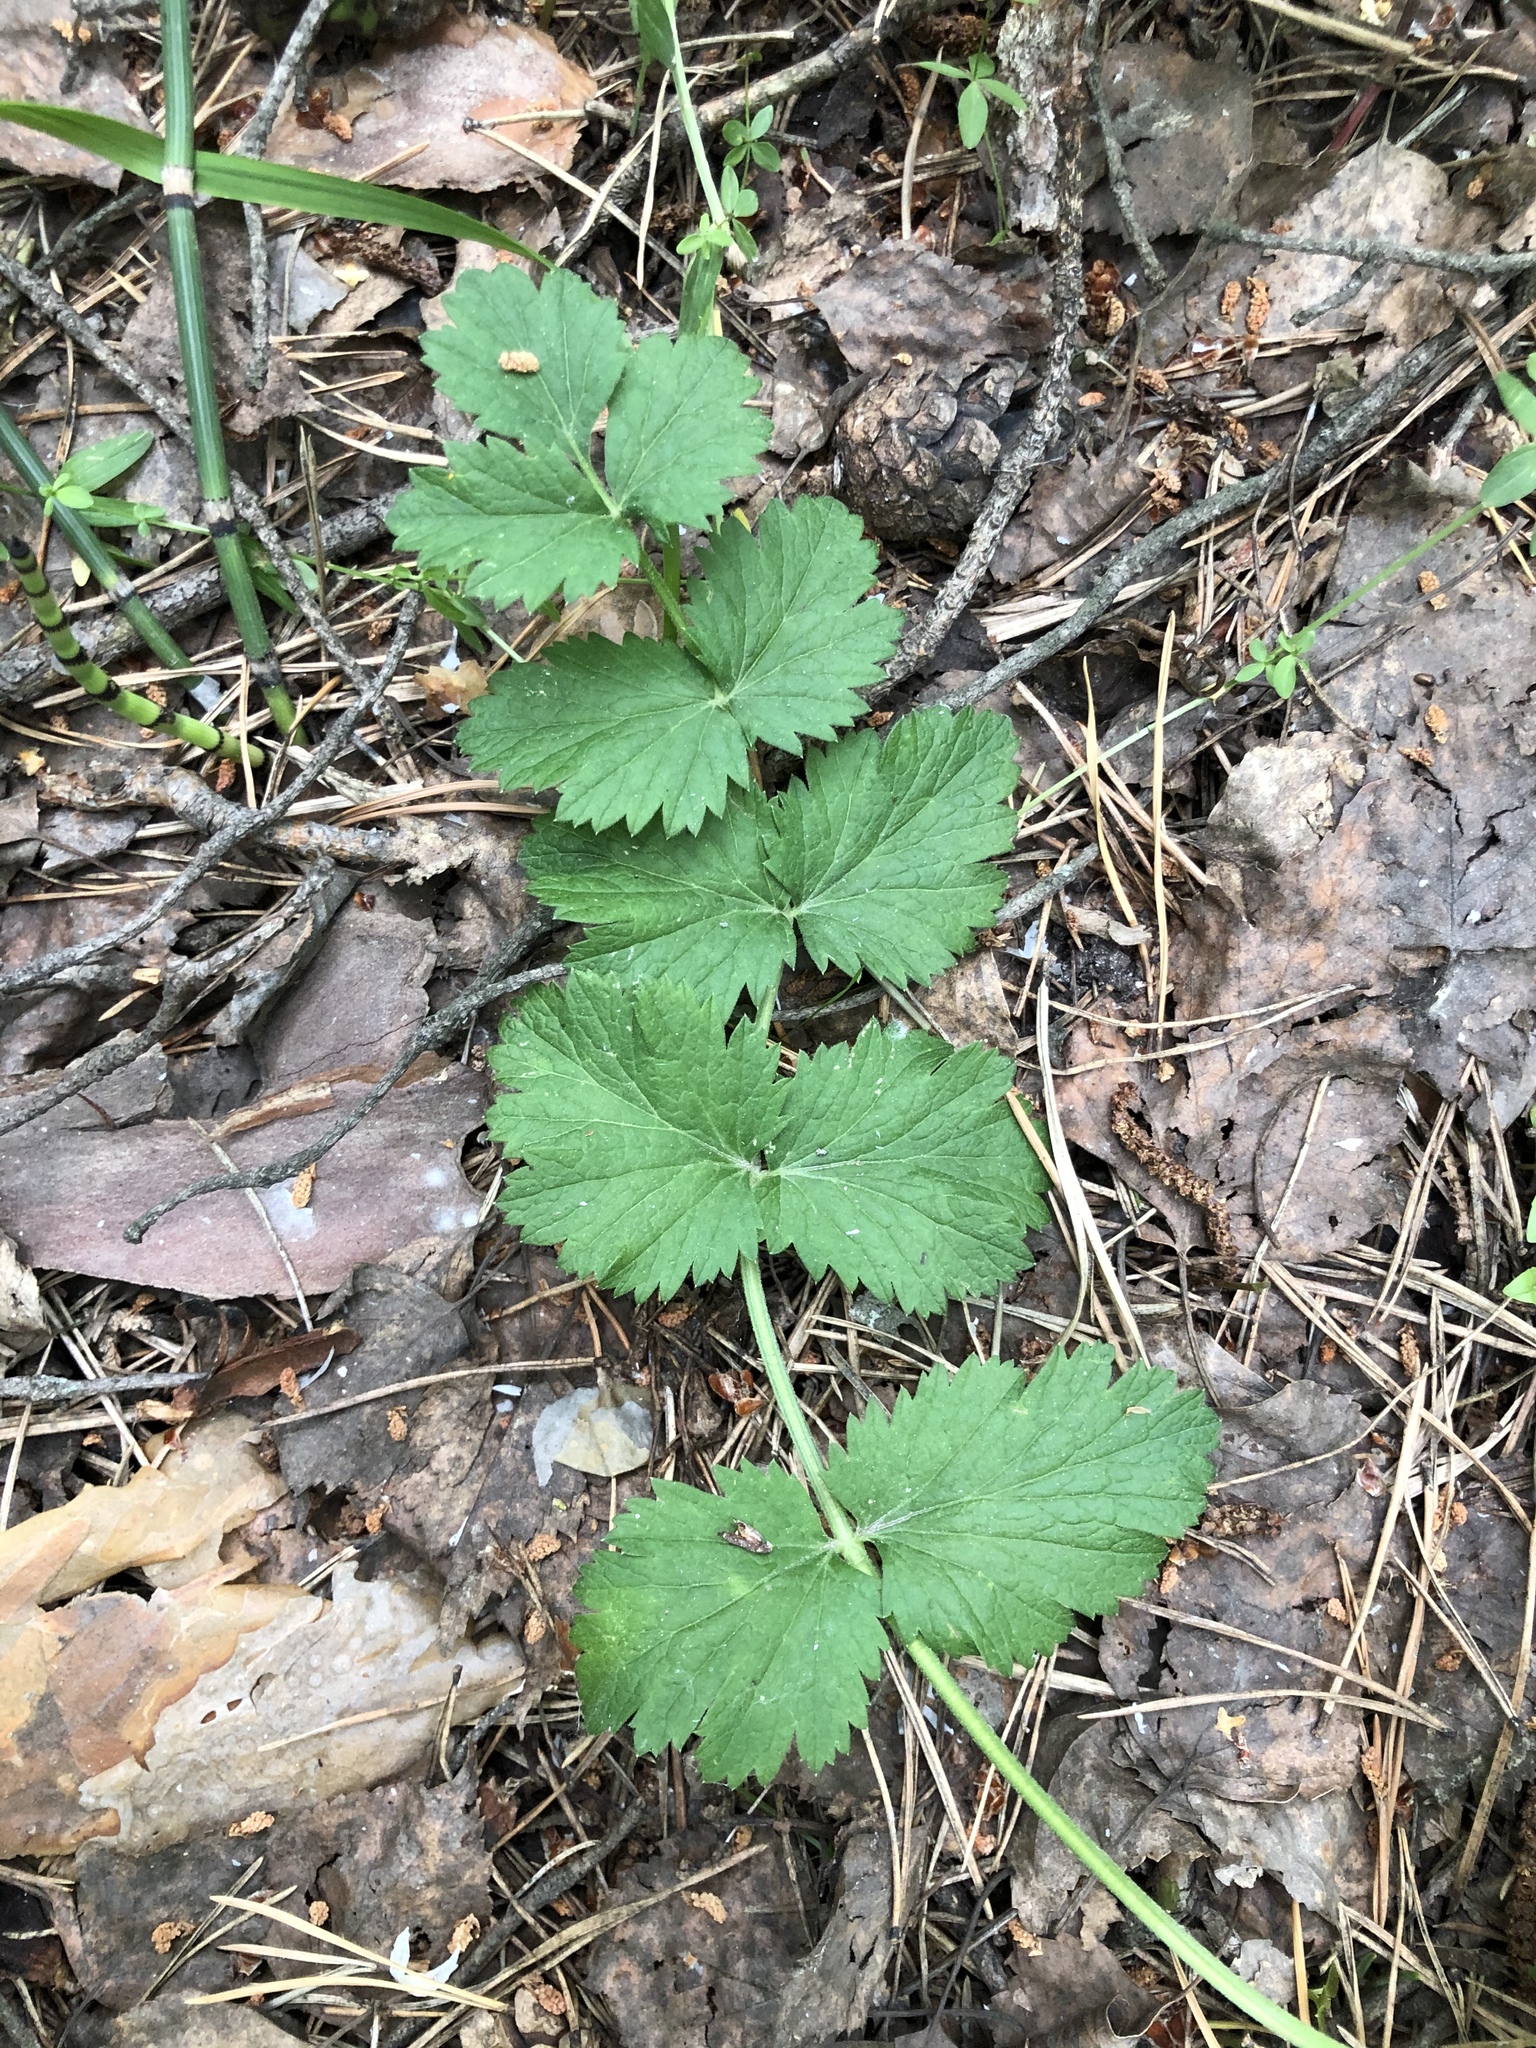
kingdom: Plantae
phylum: Tracheophyta
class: Magnoliopsida
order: Apiales
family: Apiaceae
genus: Pimpinella
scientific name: Pimpinella saxifraga
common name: Burnet-saxifrage
